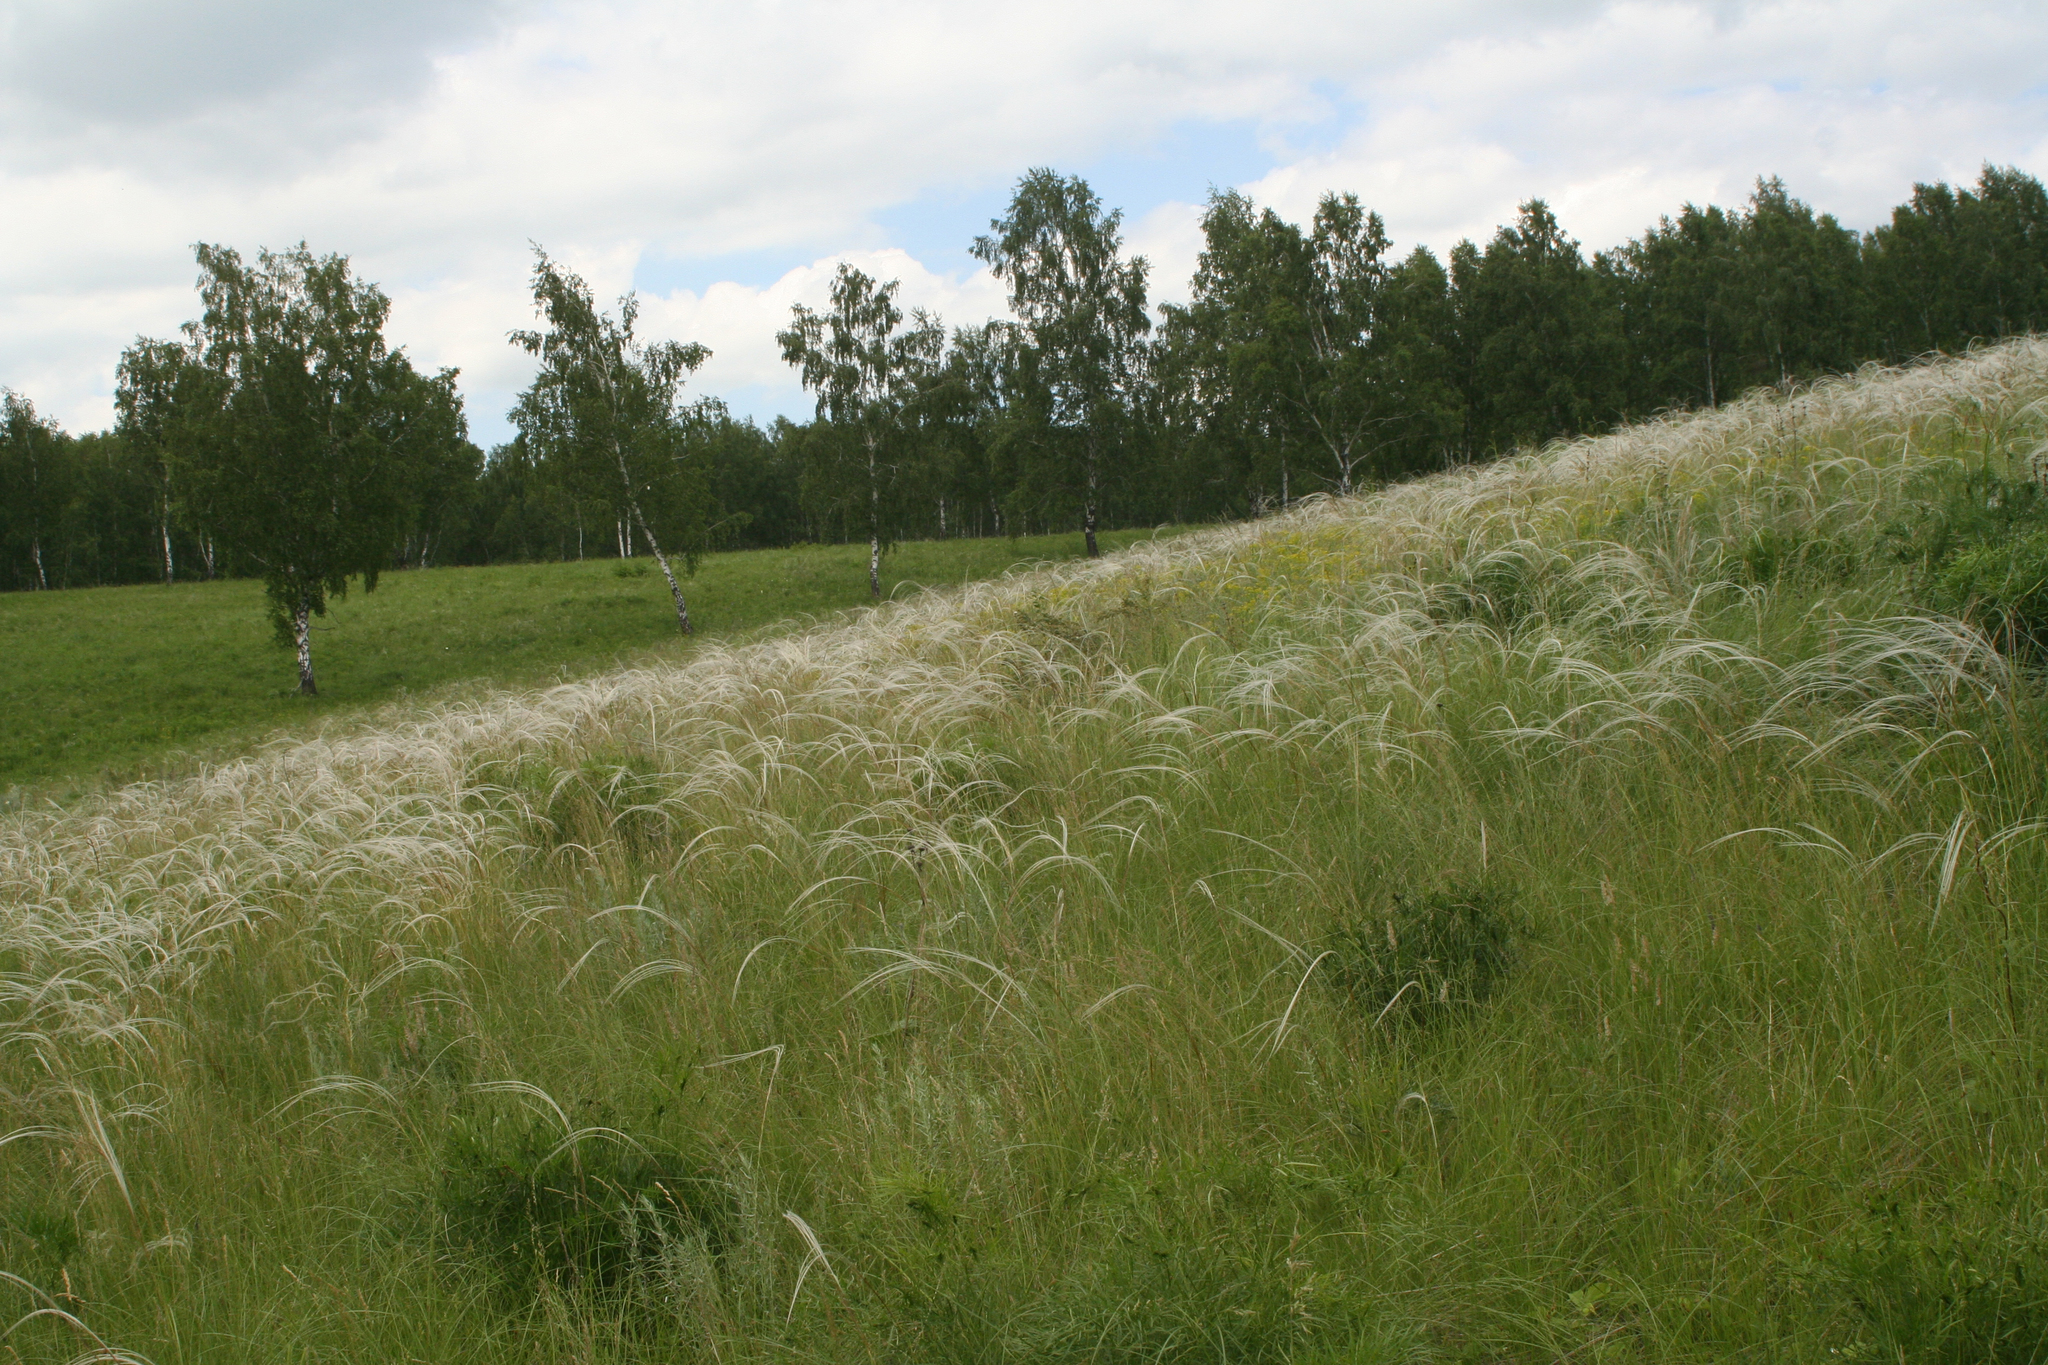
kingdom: Plantae
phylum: Tracheophyta
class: Liliopsida
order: Poales
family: Poaceae
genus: Stipa
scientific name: Stipa pennata
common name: European feather grass
